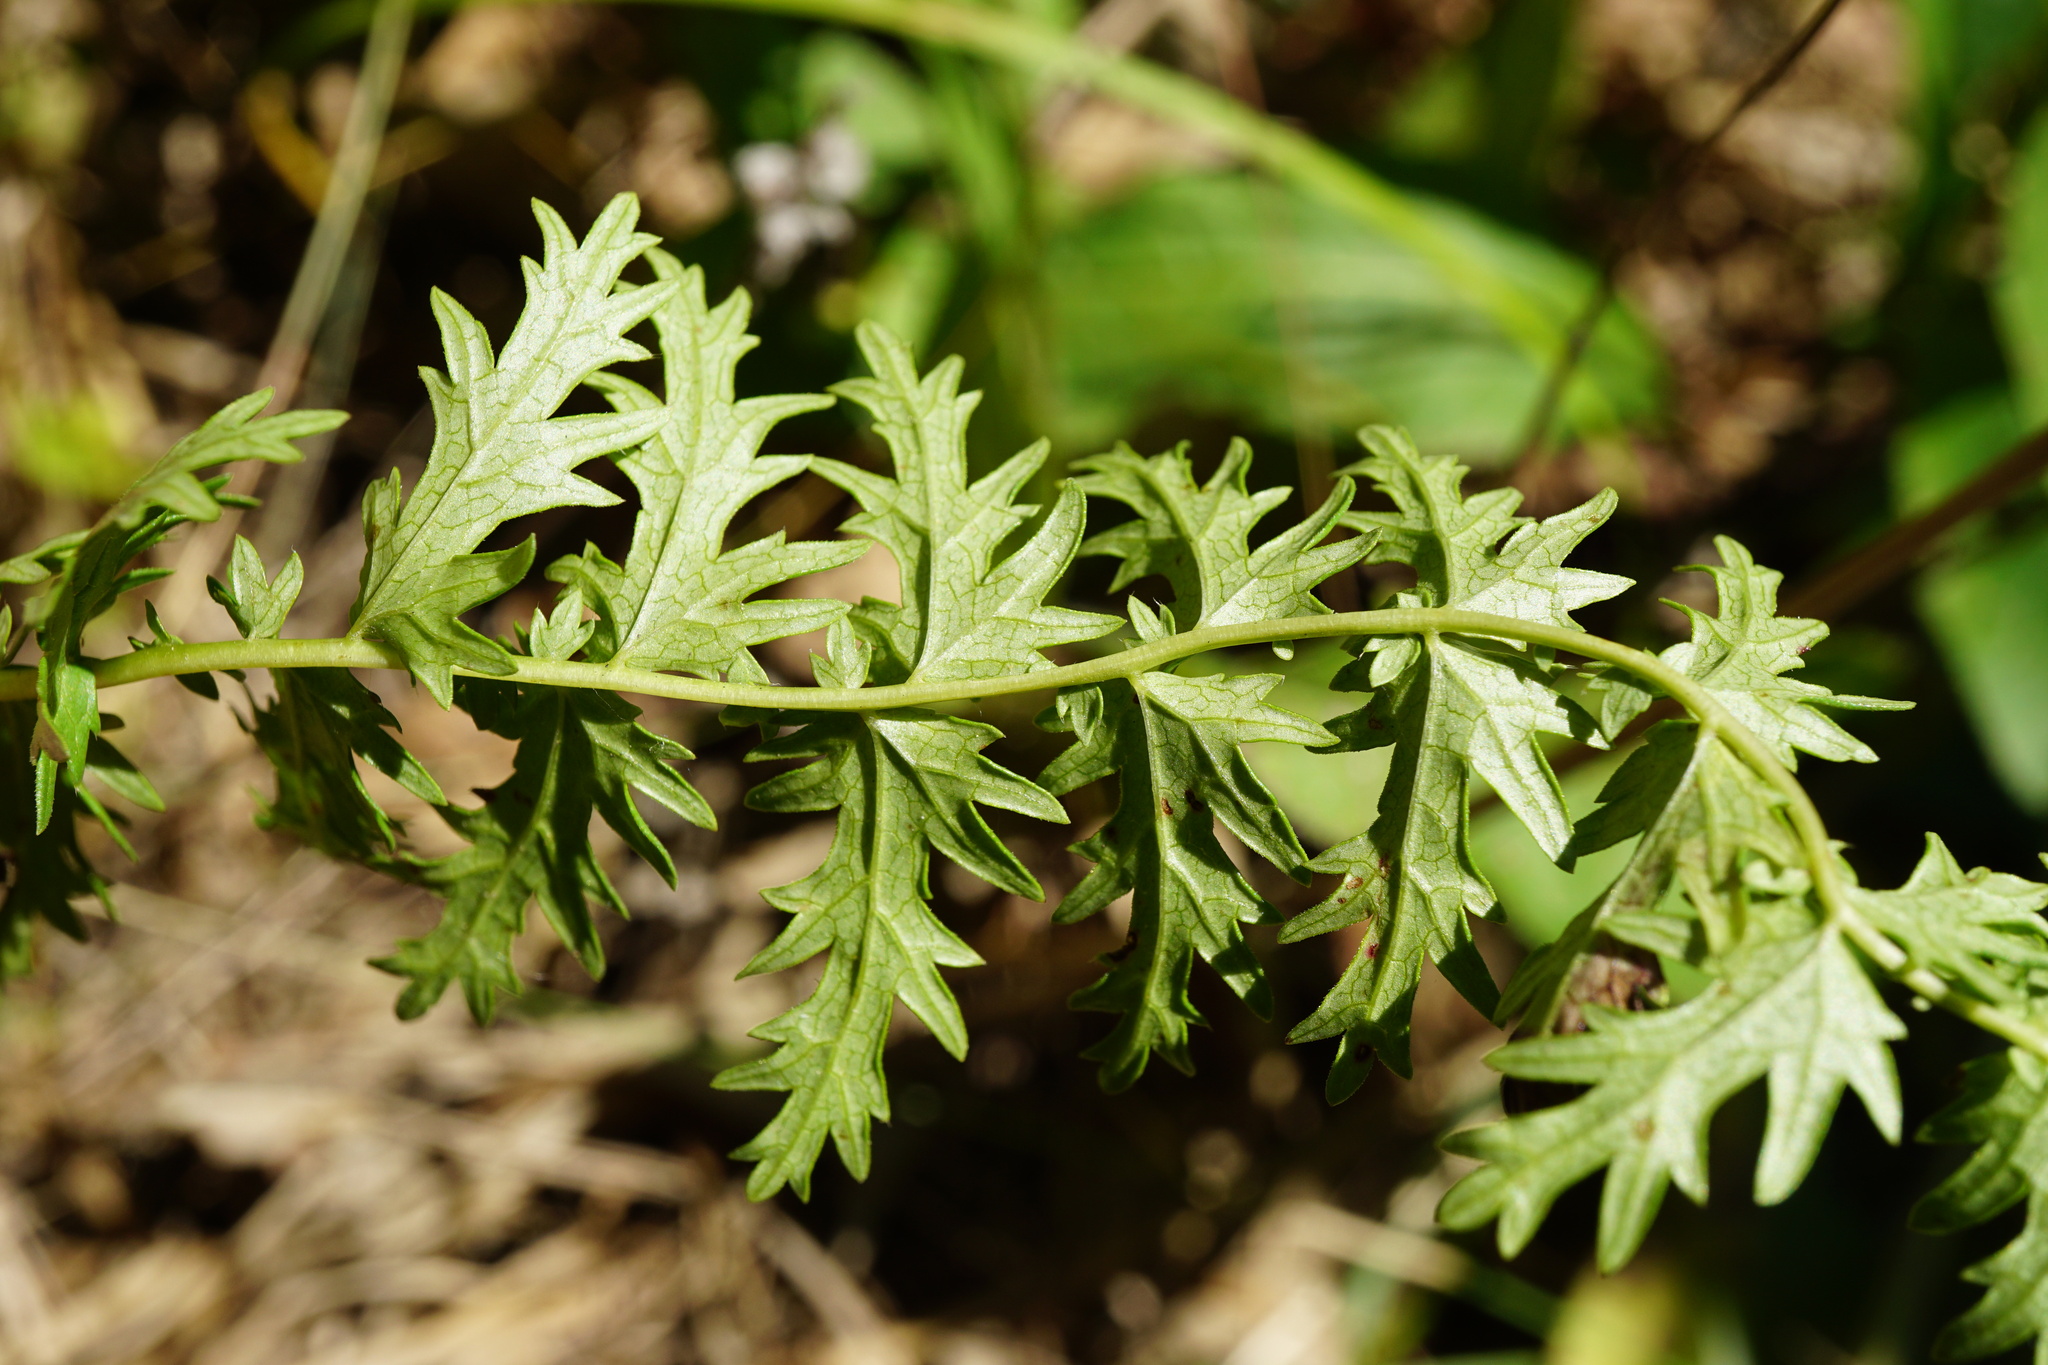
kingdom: Plantae
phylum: Tracheophyta
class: Magnoliopsida
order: Rosales
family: Rosaceae
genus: Filipendula
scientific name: Filipendula vulgaris
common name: Dropwort
